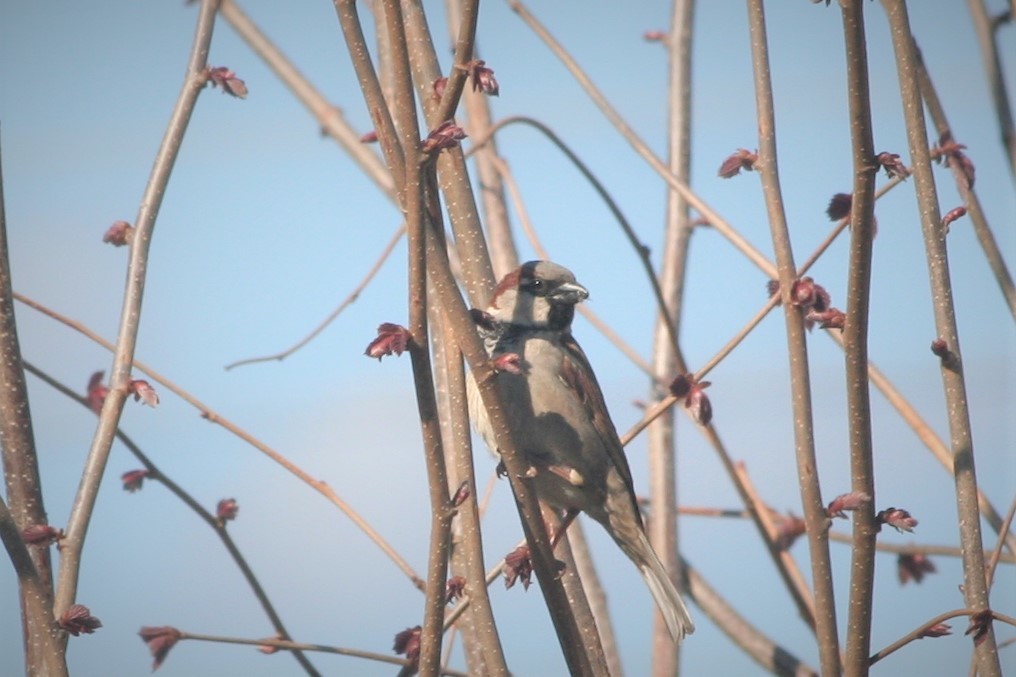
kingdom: Animalia
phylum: Chordata
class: Aves
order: Passeriformes
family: Passeridae
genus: Passer
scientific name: Passer domesticus
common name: House sparrow
